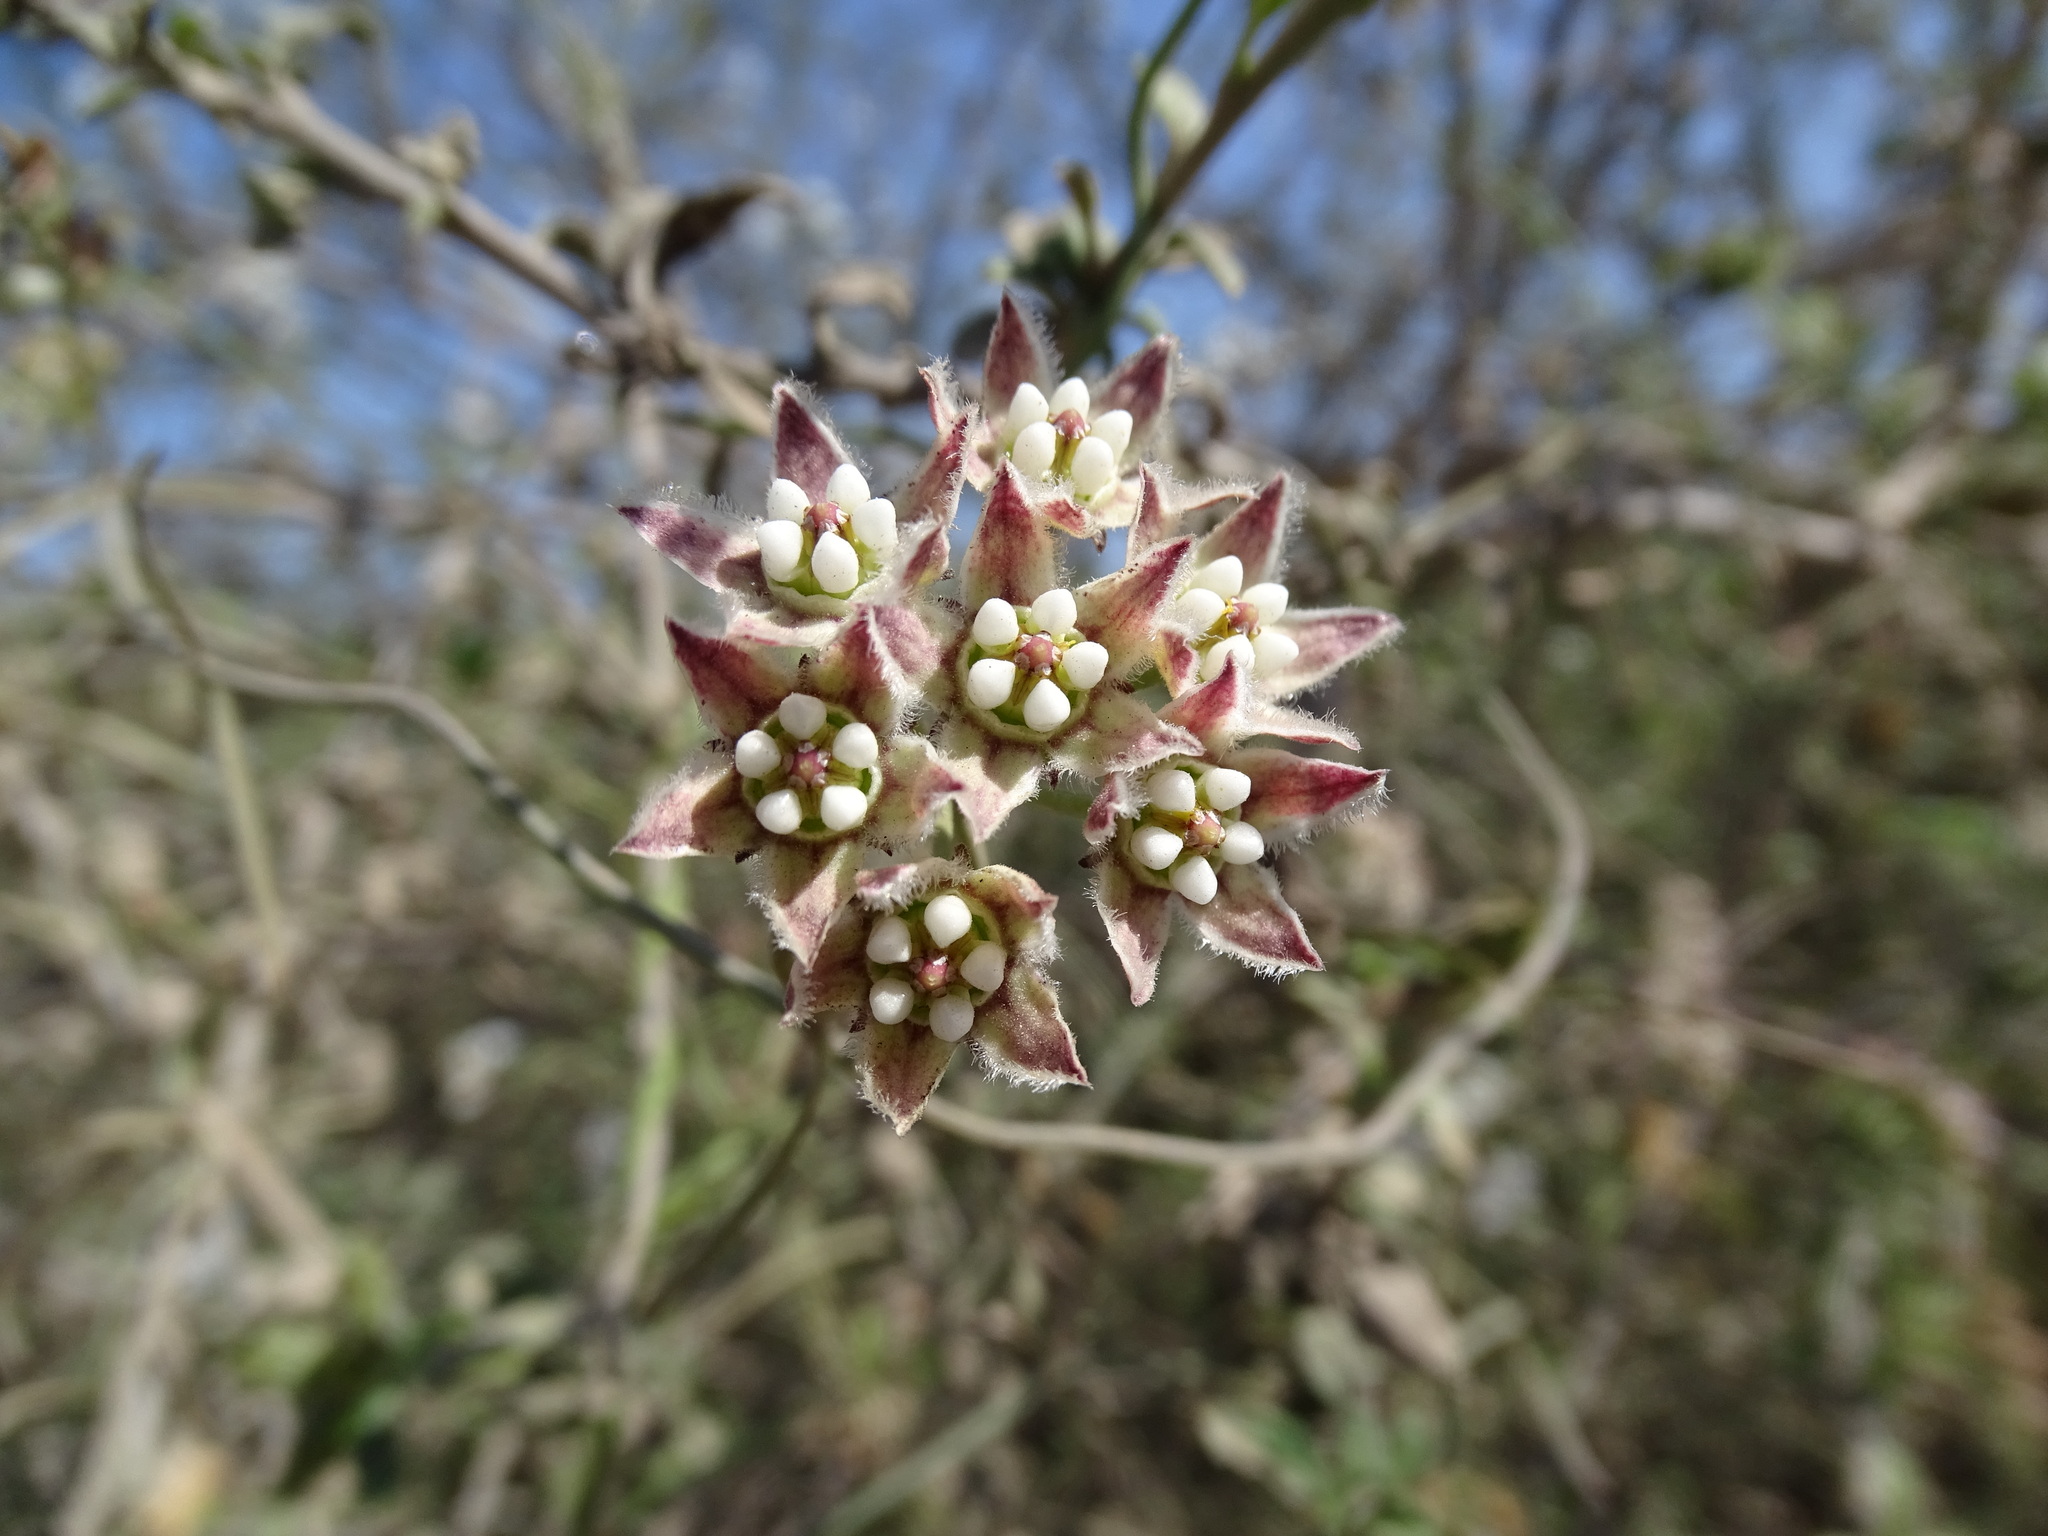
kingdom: Plantae
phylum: Tracheophyta
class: Magnoliopsida
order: Gentianales
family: Apocynaceae
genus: Funastrum
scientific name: Funastrum heterophyllum
